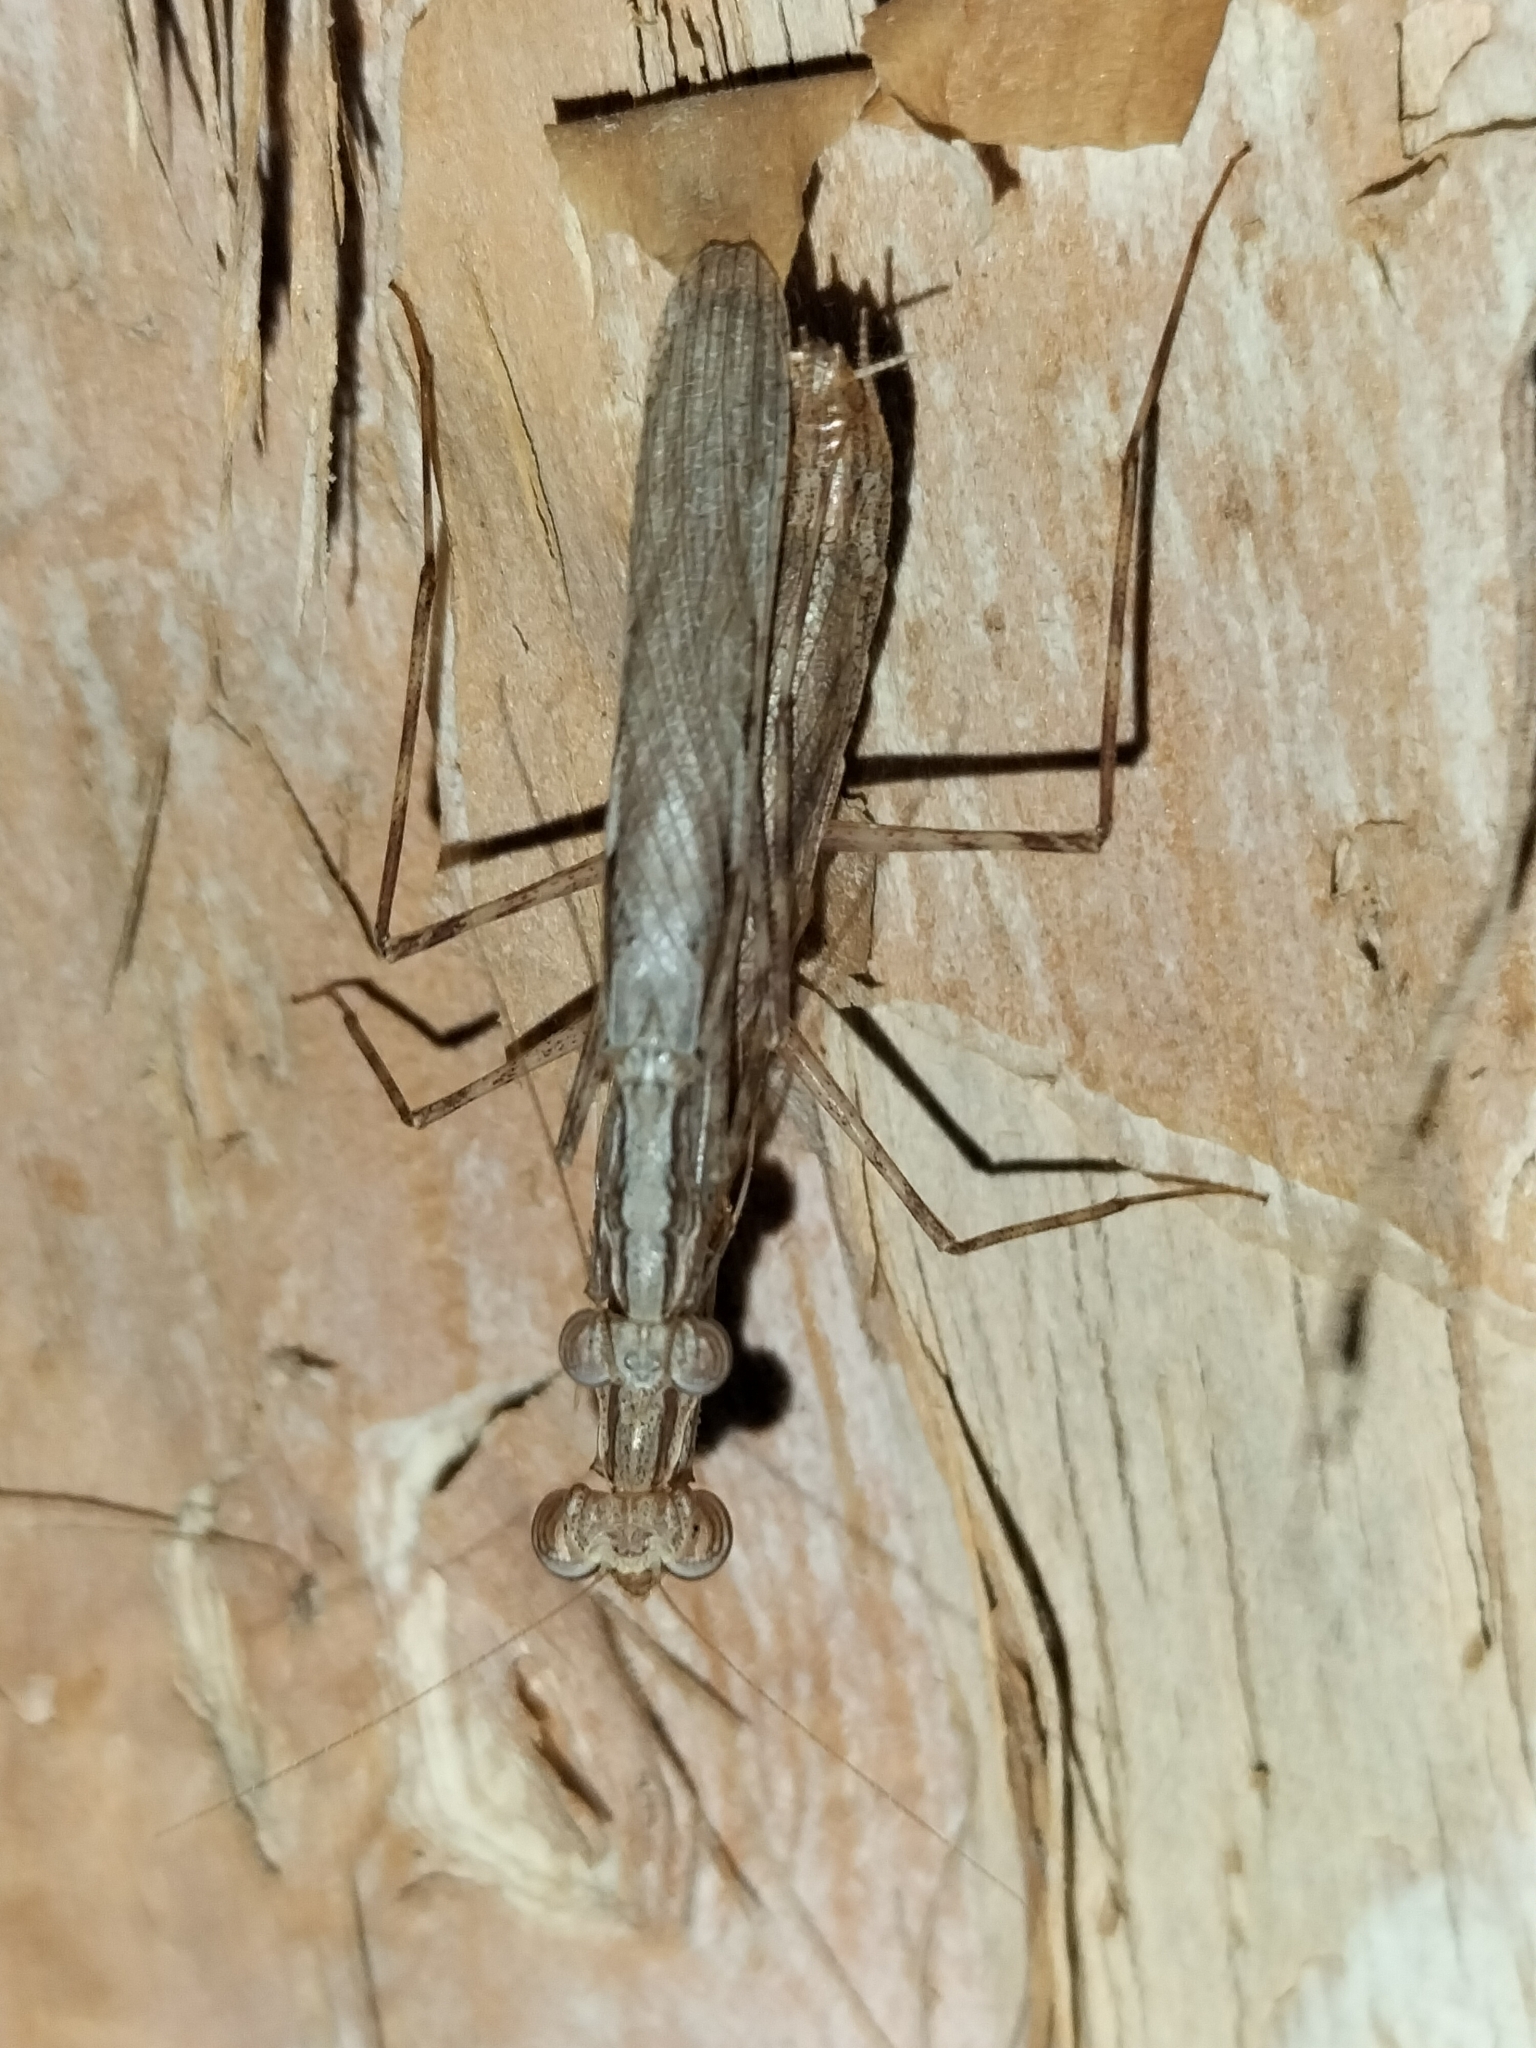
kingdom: Animalia
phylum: Arthropoda
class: Insecta
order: Mantodea
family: Nanomantidae
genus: Ima
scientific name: Ima fusca
